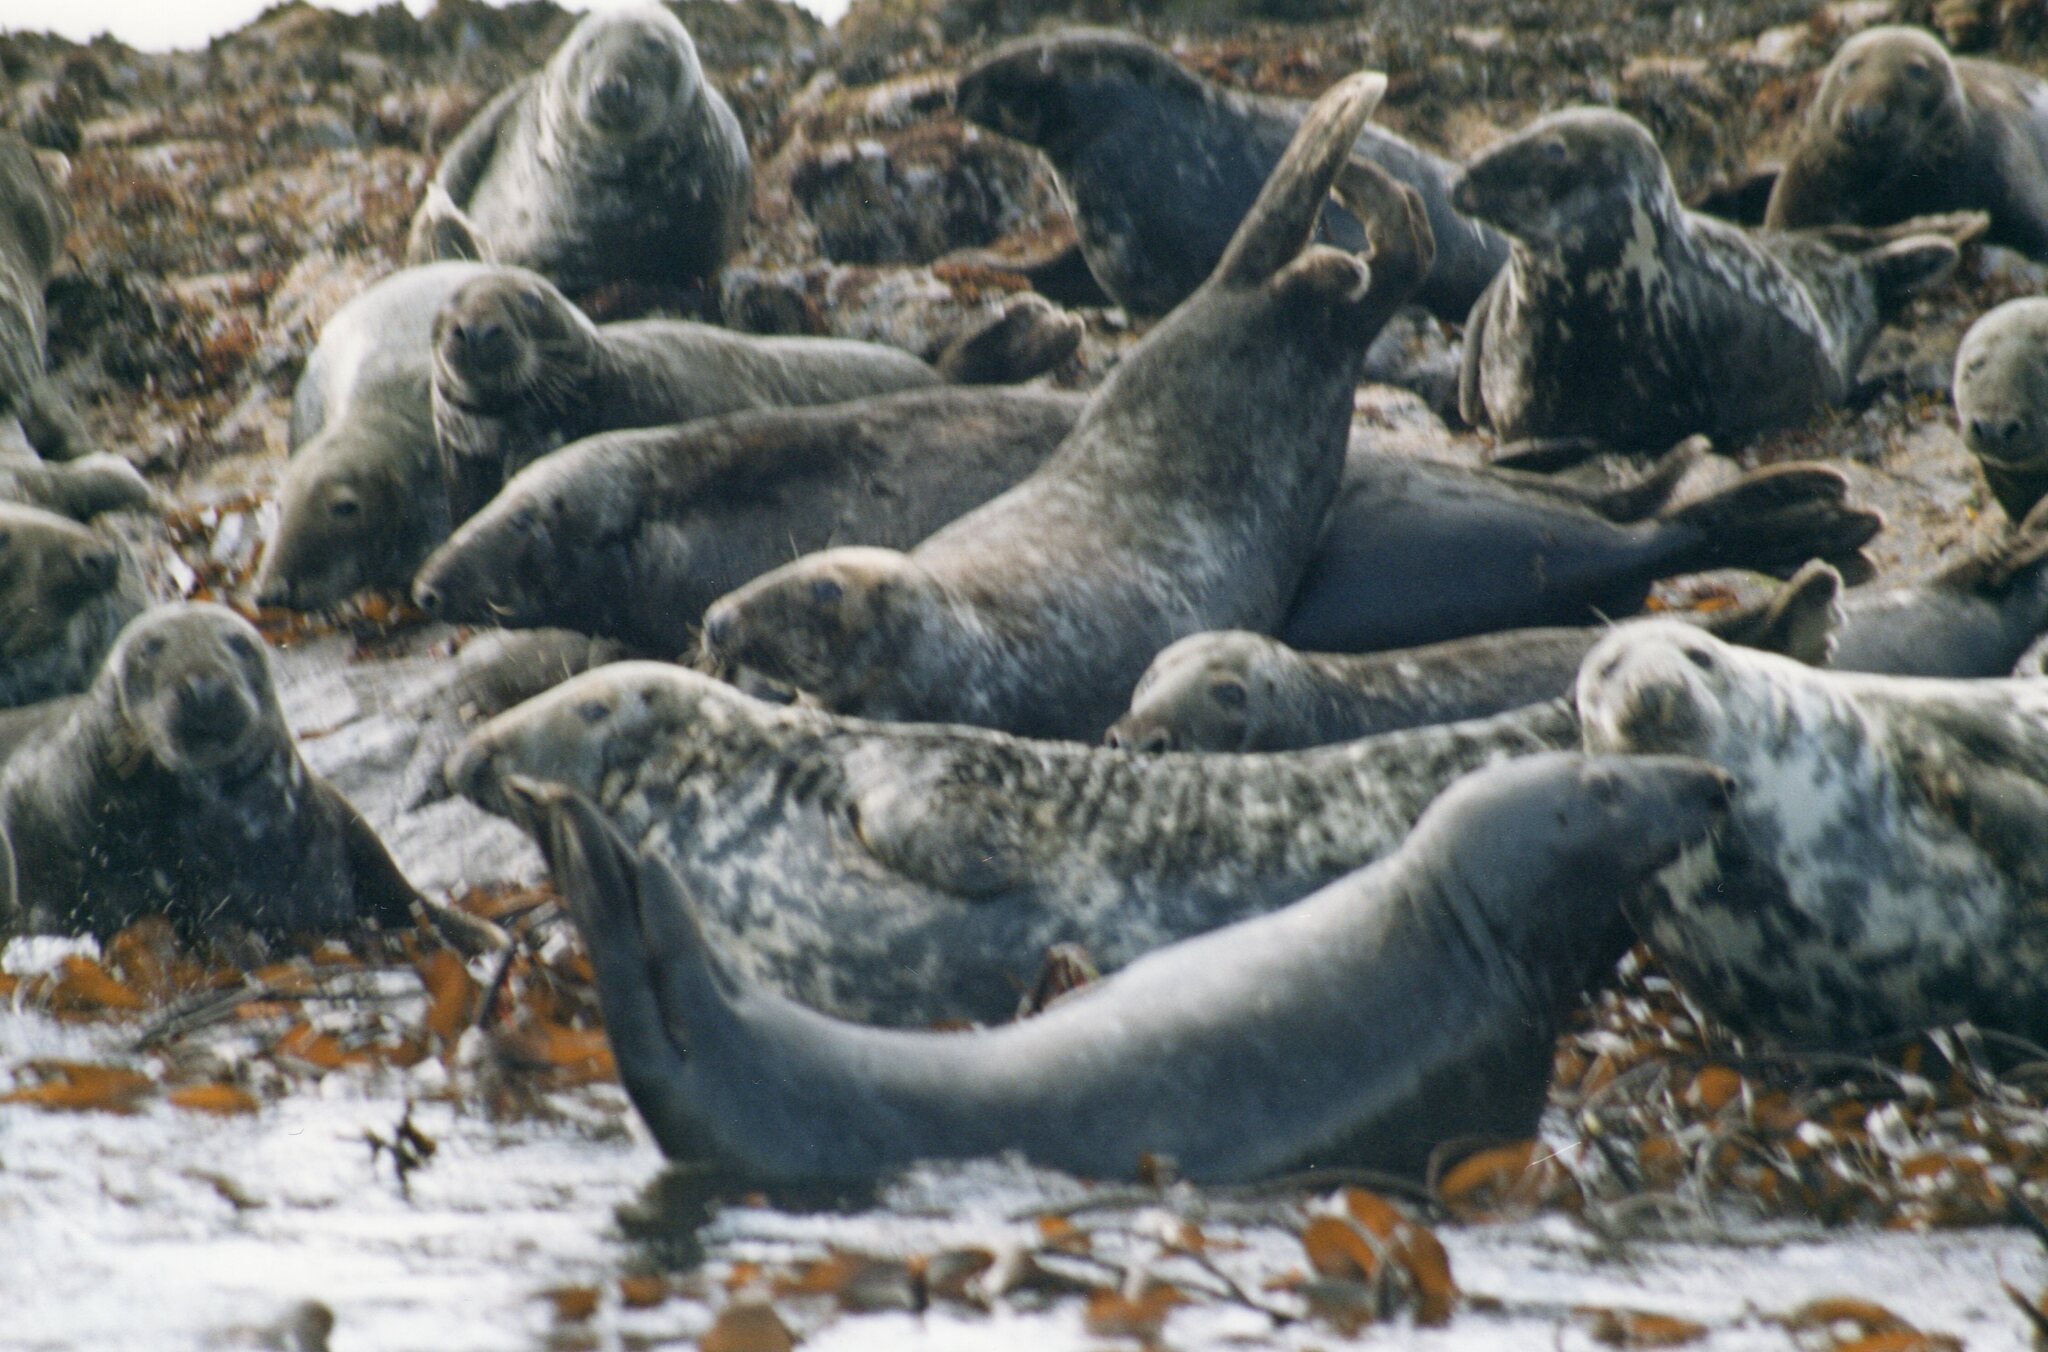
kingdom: Animalia
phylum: Chordata
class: Mammalia
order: Carnivora
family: Phocidae
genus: Halichoerus
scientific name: Halichoerus grypus
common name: Grey seal
